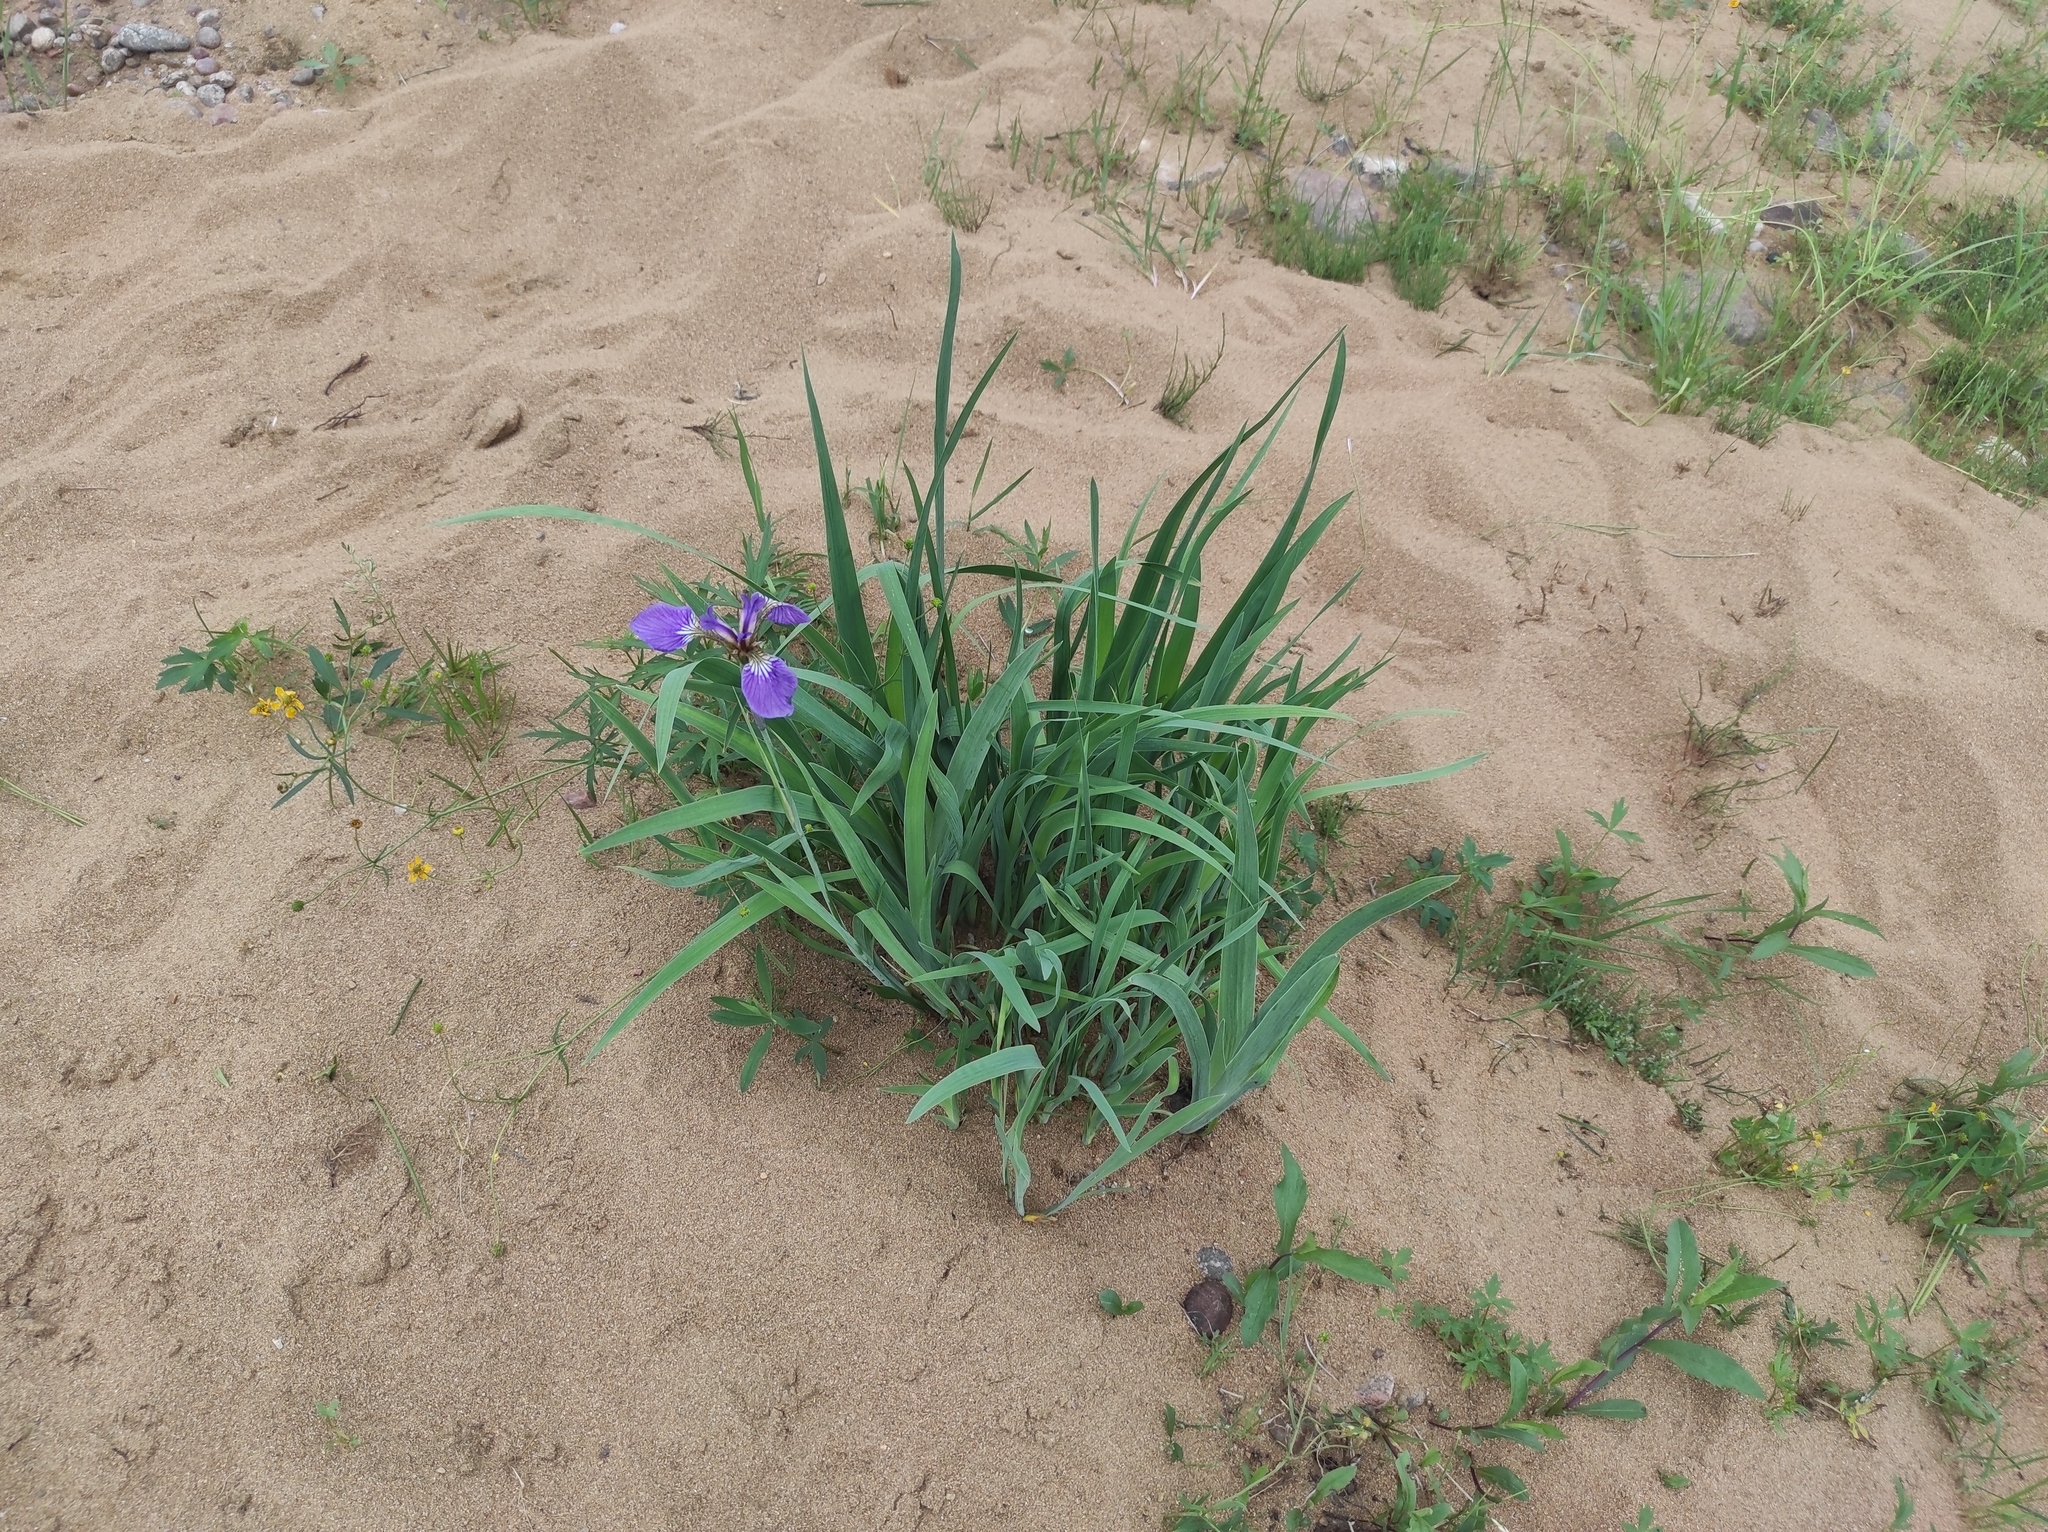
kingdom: Plantae
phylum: Tracheophyta
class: Liliopsida
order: Asparagales
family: Iridaceae
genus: Iris
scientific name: Iris setosa
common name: Arctic blue flag
